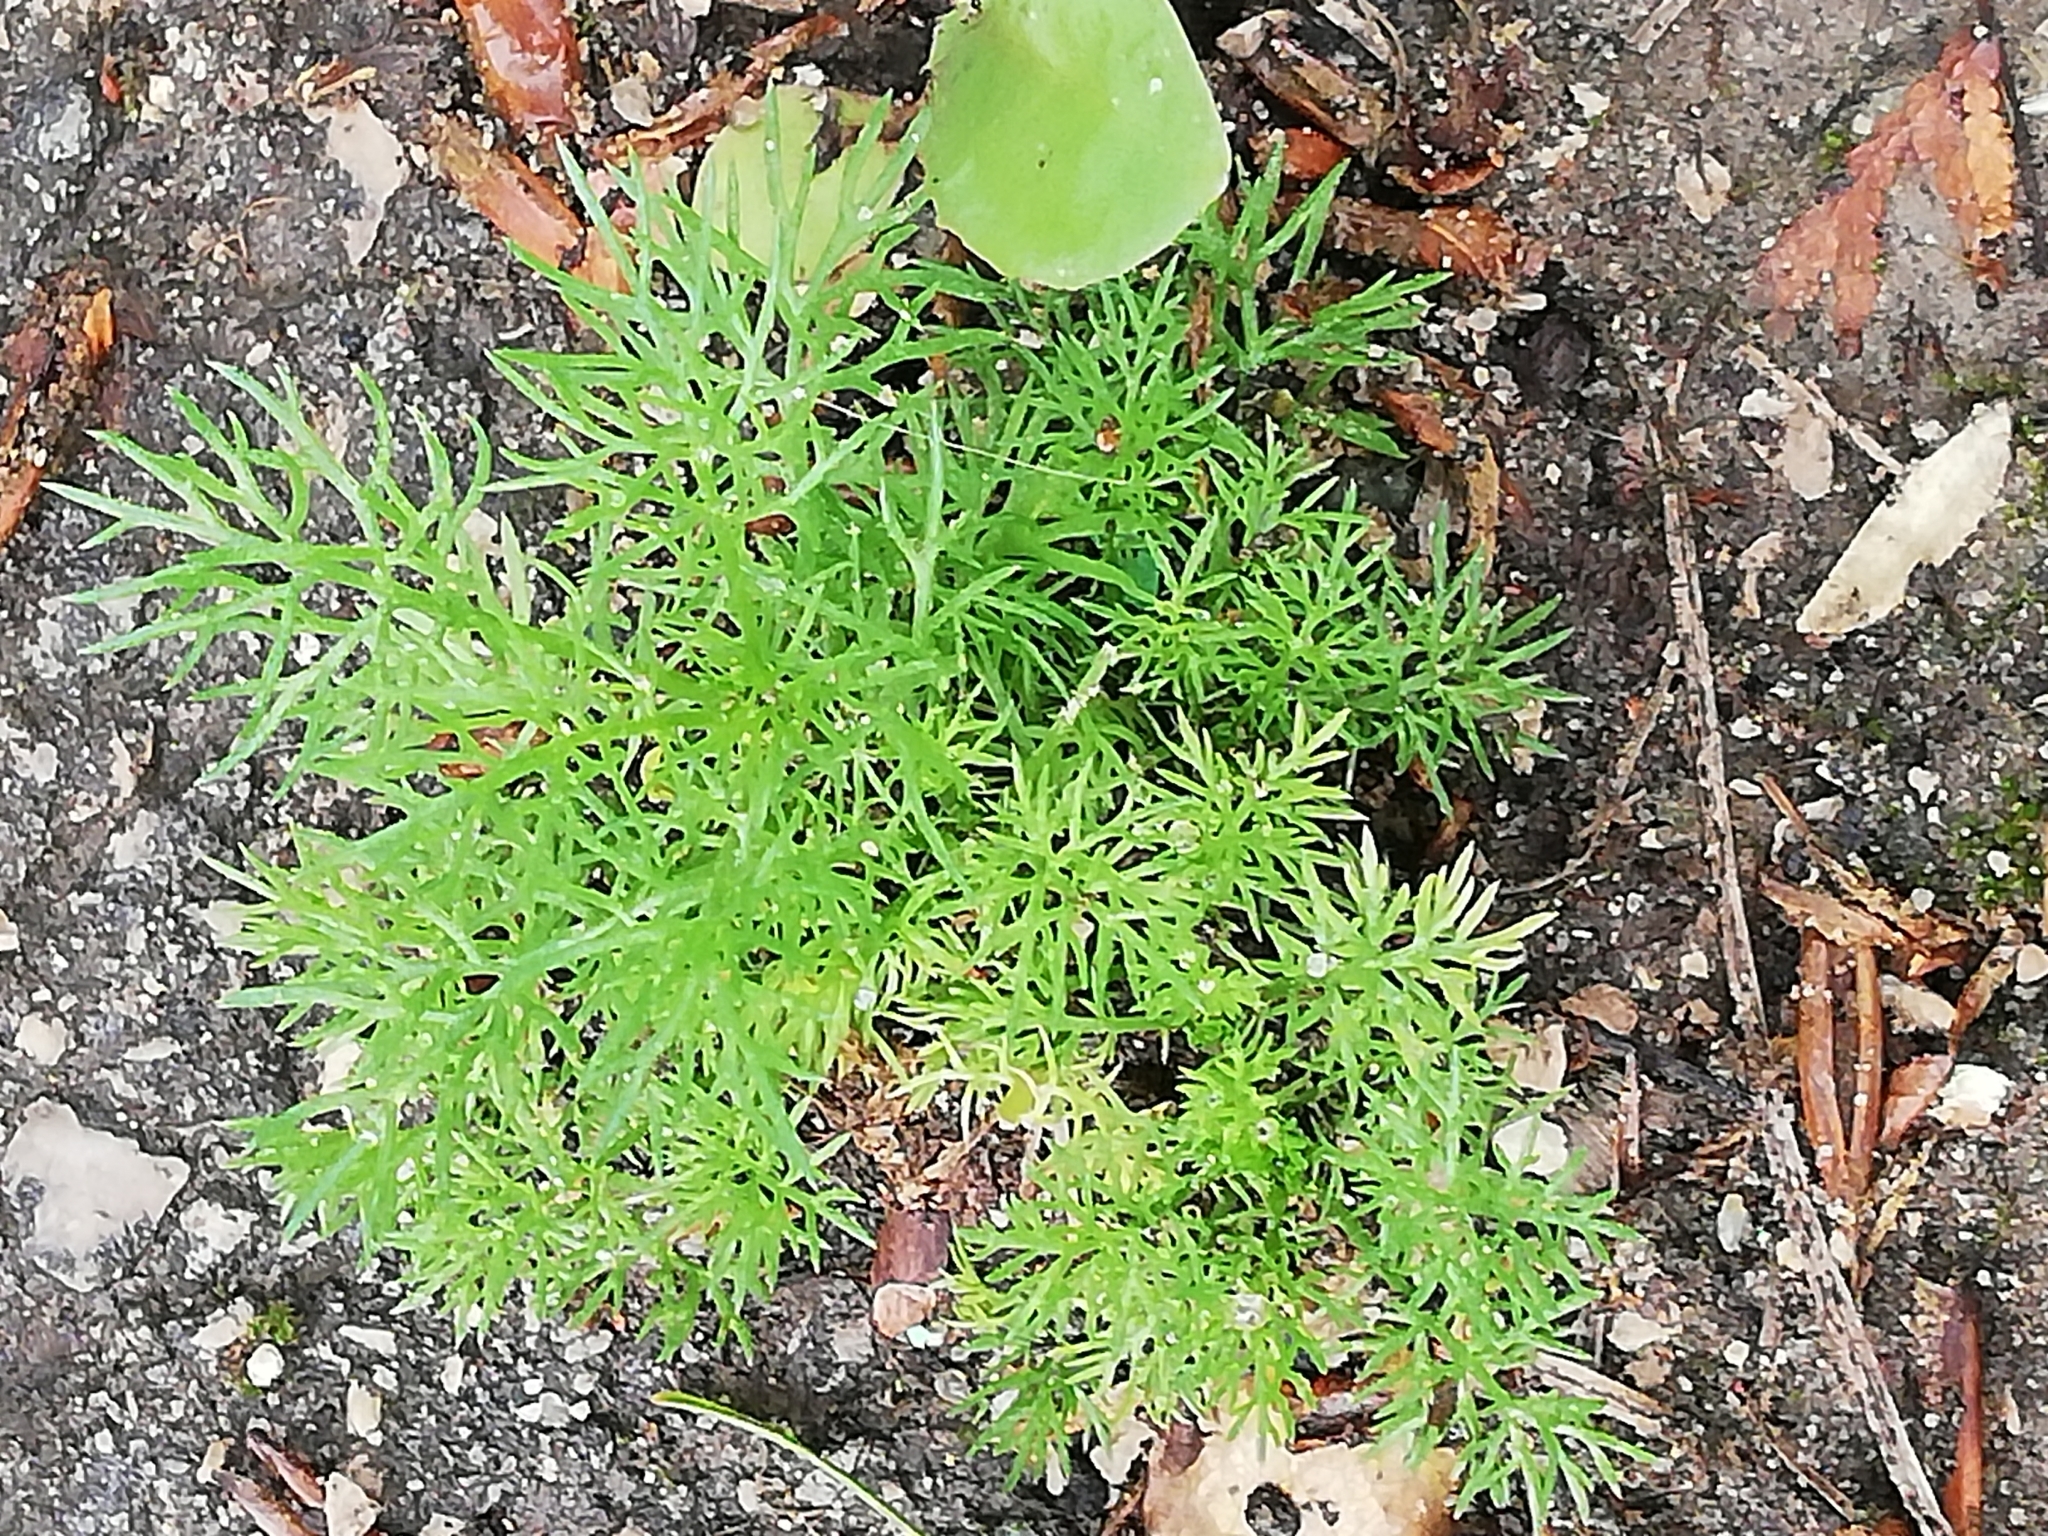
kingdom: Plantae
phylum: Tracheophyta
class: Magnoliopsida
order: Asterales
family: Asteraceae
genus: Tripleurospermum
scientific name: Tripleurospermum inodorum
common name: Scentless mayweed
